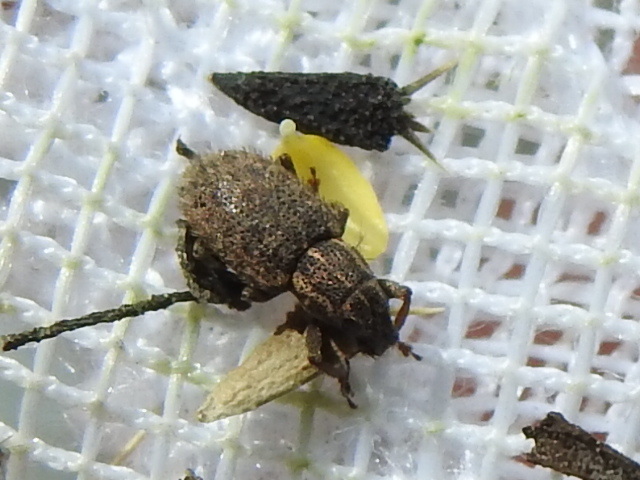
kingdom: Animalia
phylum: Arthropoda
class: Insecta
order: Coleoptera
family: Curculionidae
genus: Sitona
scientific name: Sitona hispidulus
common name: Clover weevil
